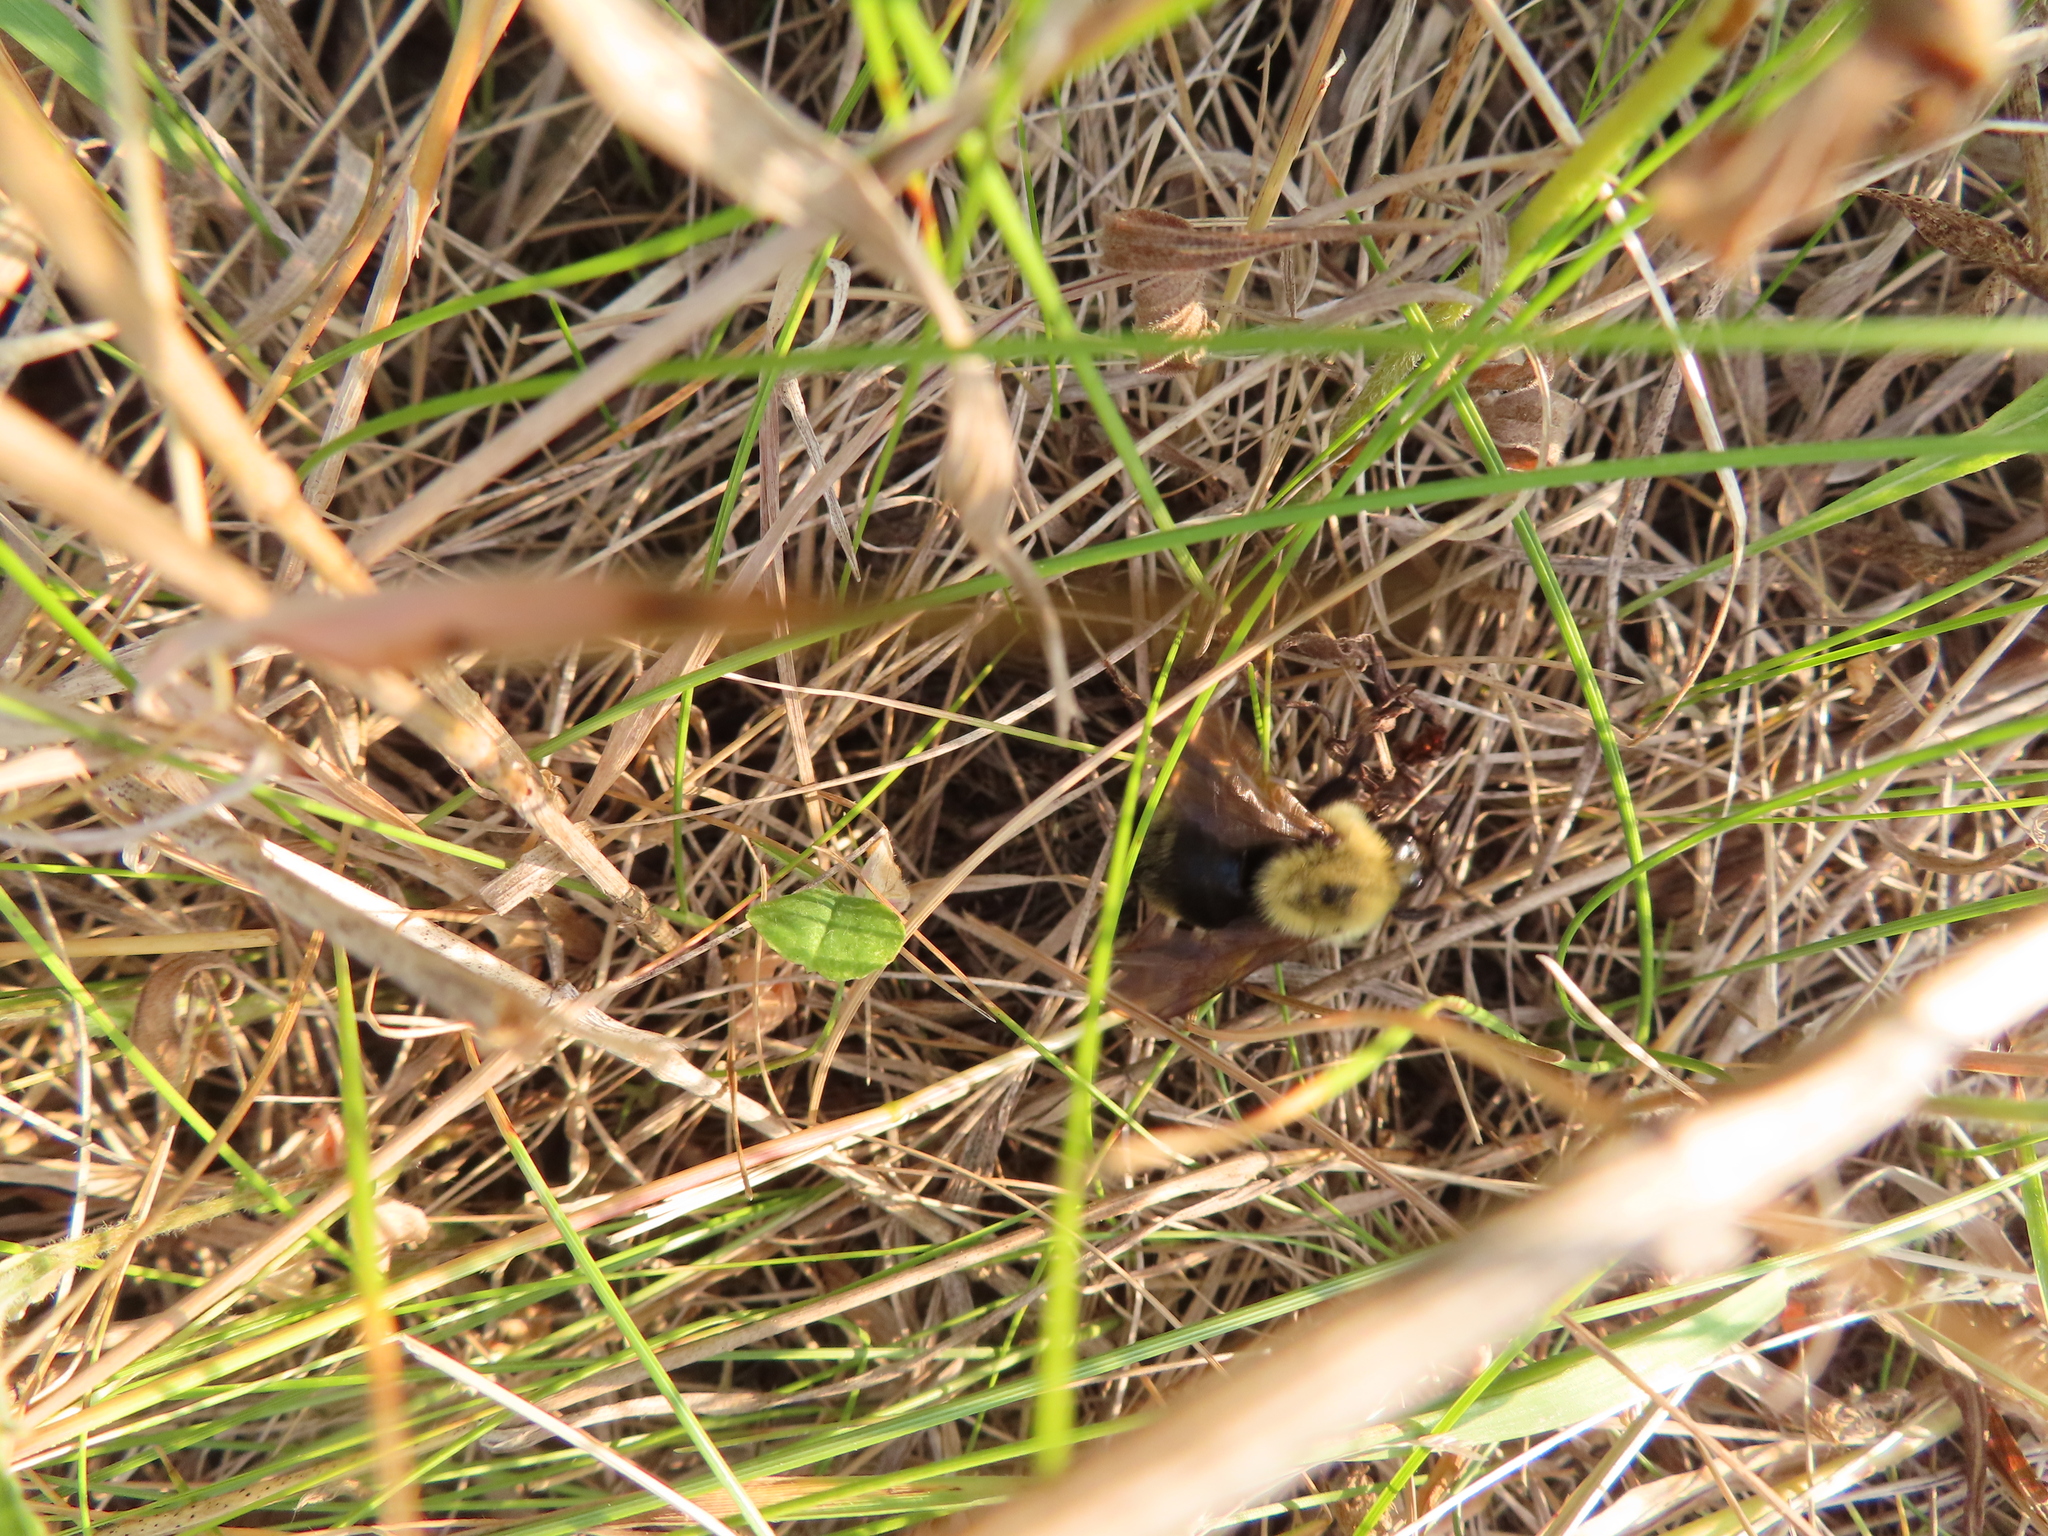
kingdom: Animalia
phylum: Arthropoda
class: Insecta
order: Hymenoptera
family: Apidae
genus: Bombus
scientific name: Bombus citrinus
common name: Lemon cuckoo bumble bee
